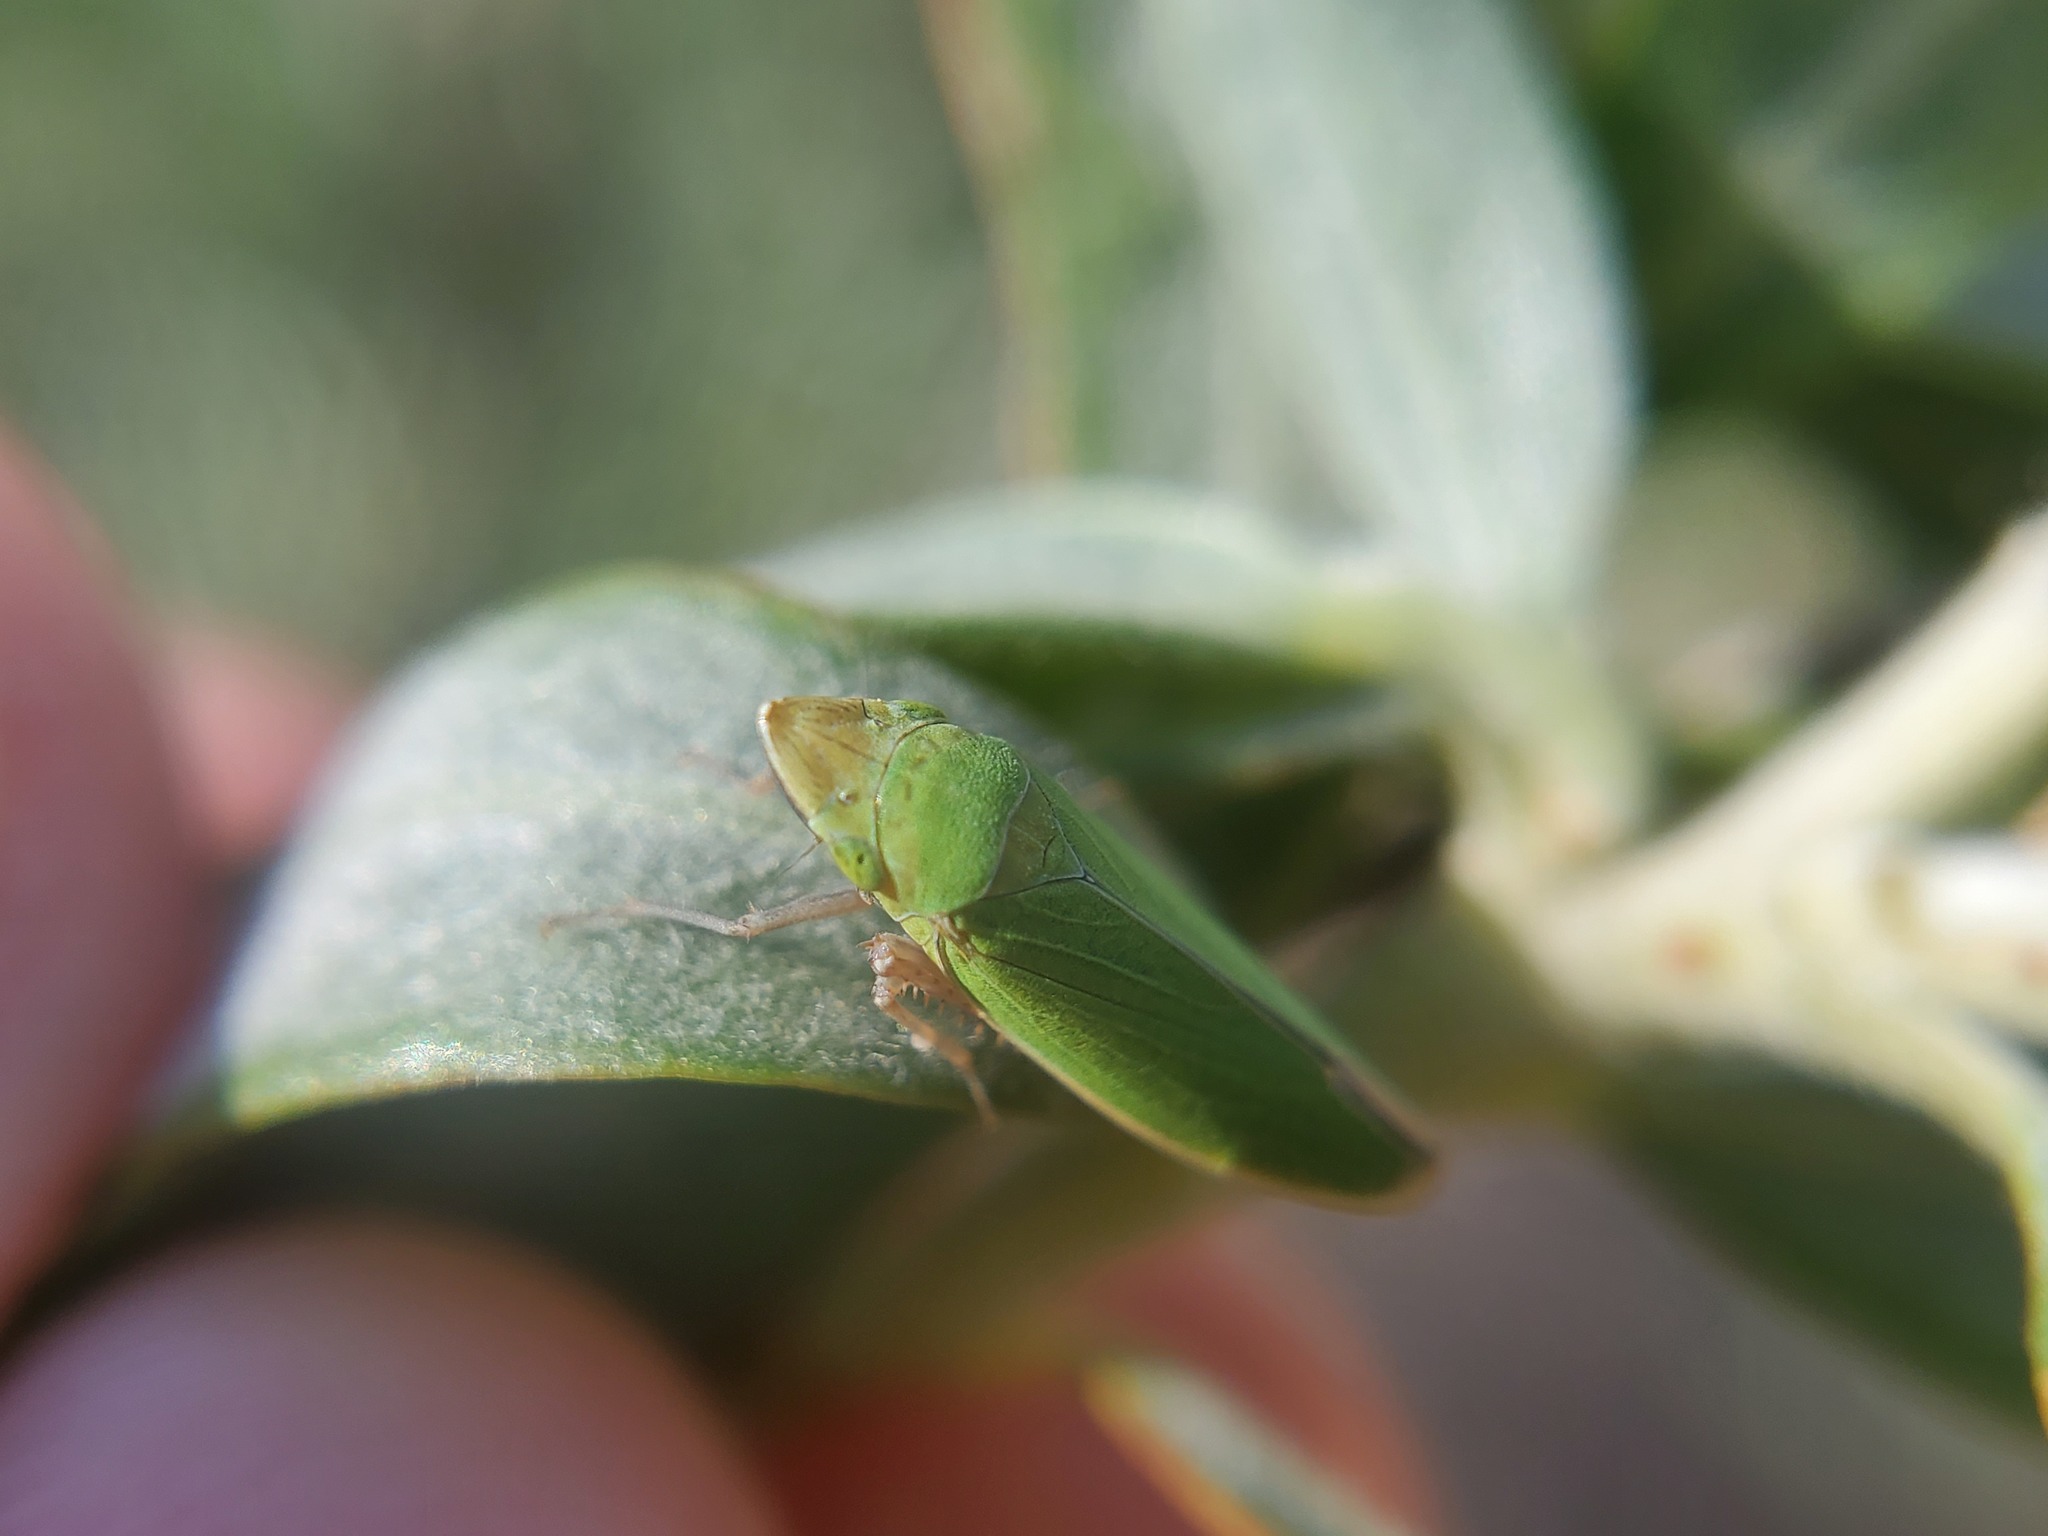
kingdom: Animalia
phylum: Arthropoda
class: Insecta
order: Hemiptera
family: Cicadellidae
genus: Draeculacephala
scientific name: Draeculacephala minerva
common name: Grass sharphooter
